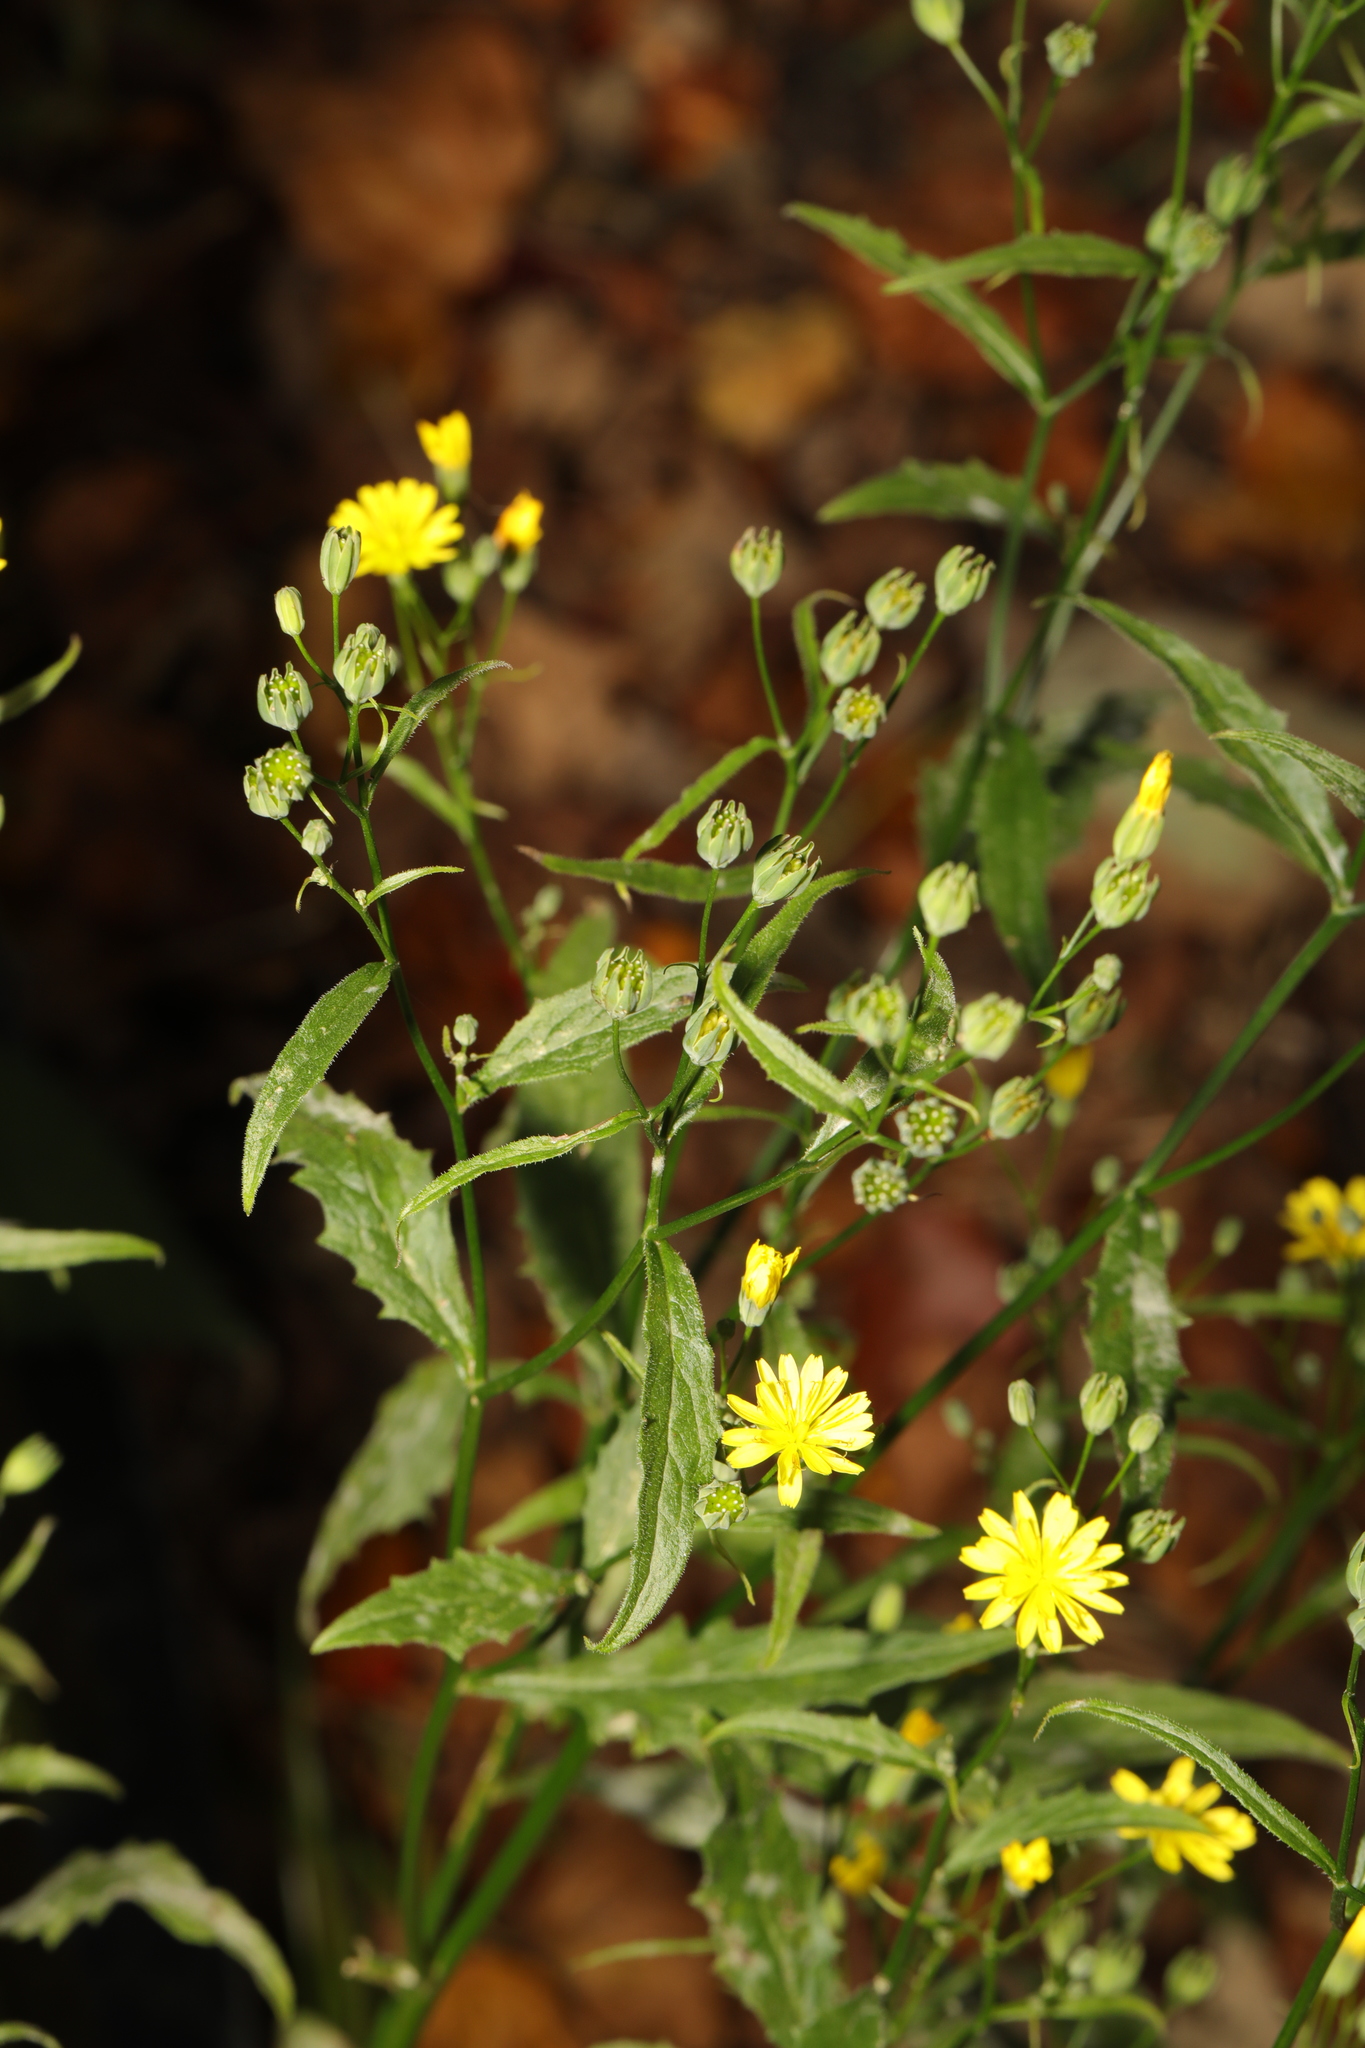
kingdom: Plantae
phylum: Tracheophyta
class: Magnoliopsida
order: Asterales
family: Asteraceae
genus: Lapsana
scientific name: Lapsana communis
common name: Nipplewort
